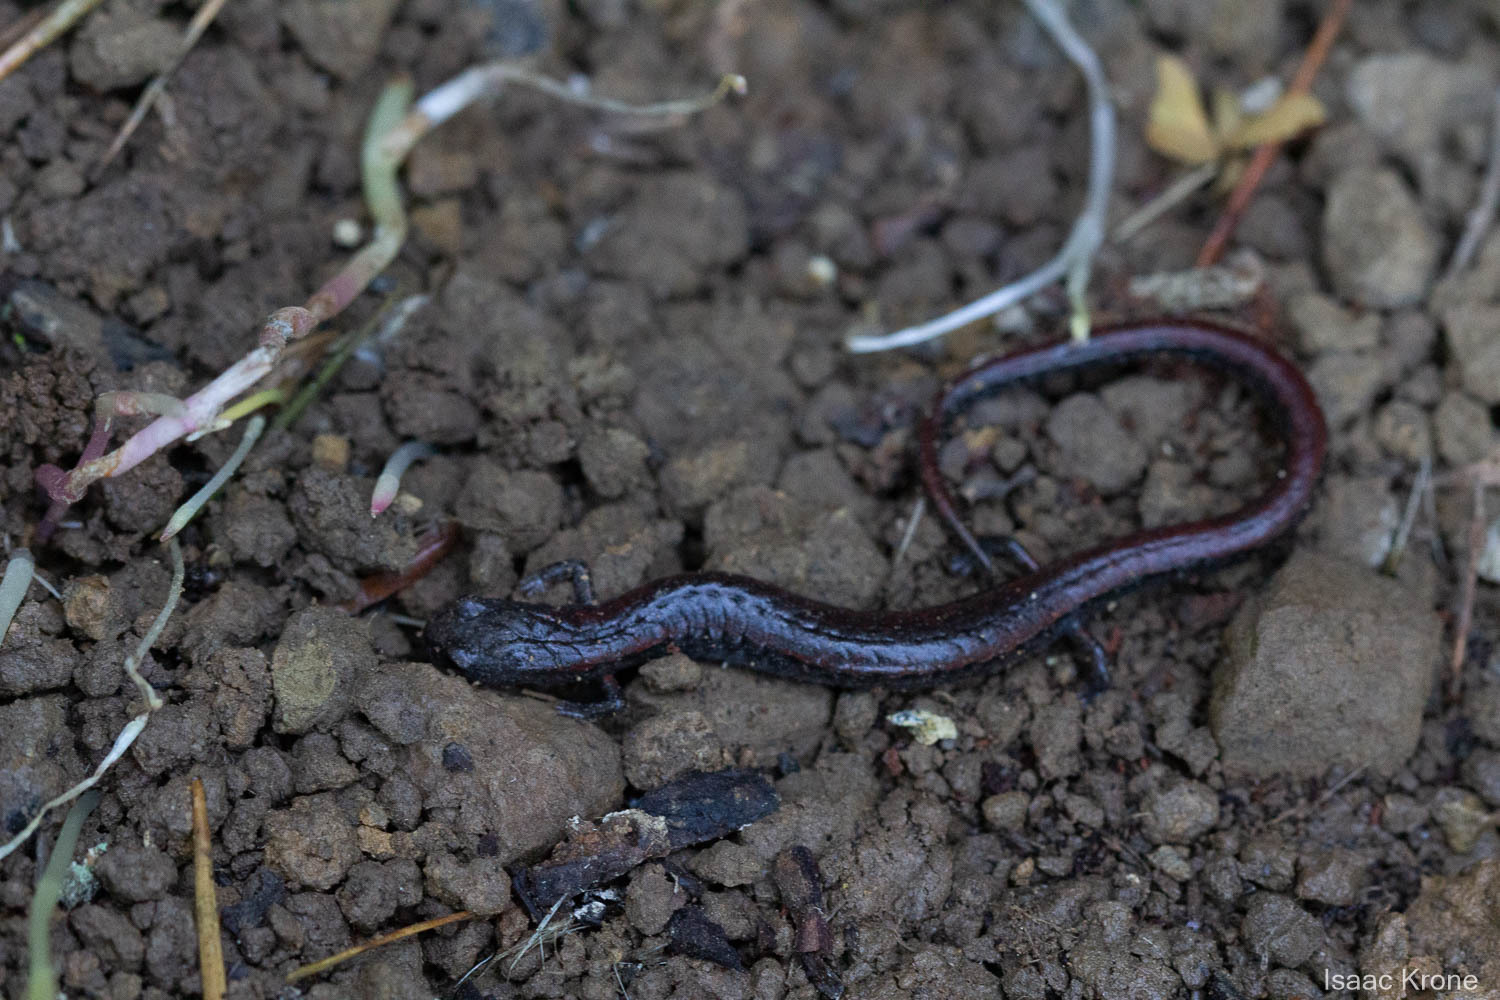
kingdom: Animalia
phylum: Chordata
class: Amphibia
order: Caudata
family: Plethodontidae
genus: Batrachoseps
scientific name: Batrachoseps attenuatus
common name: California slender salamander
